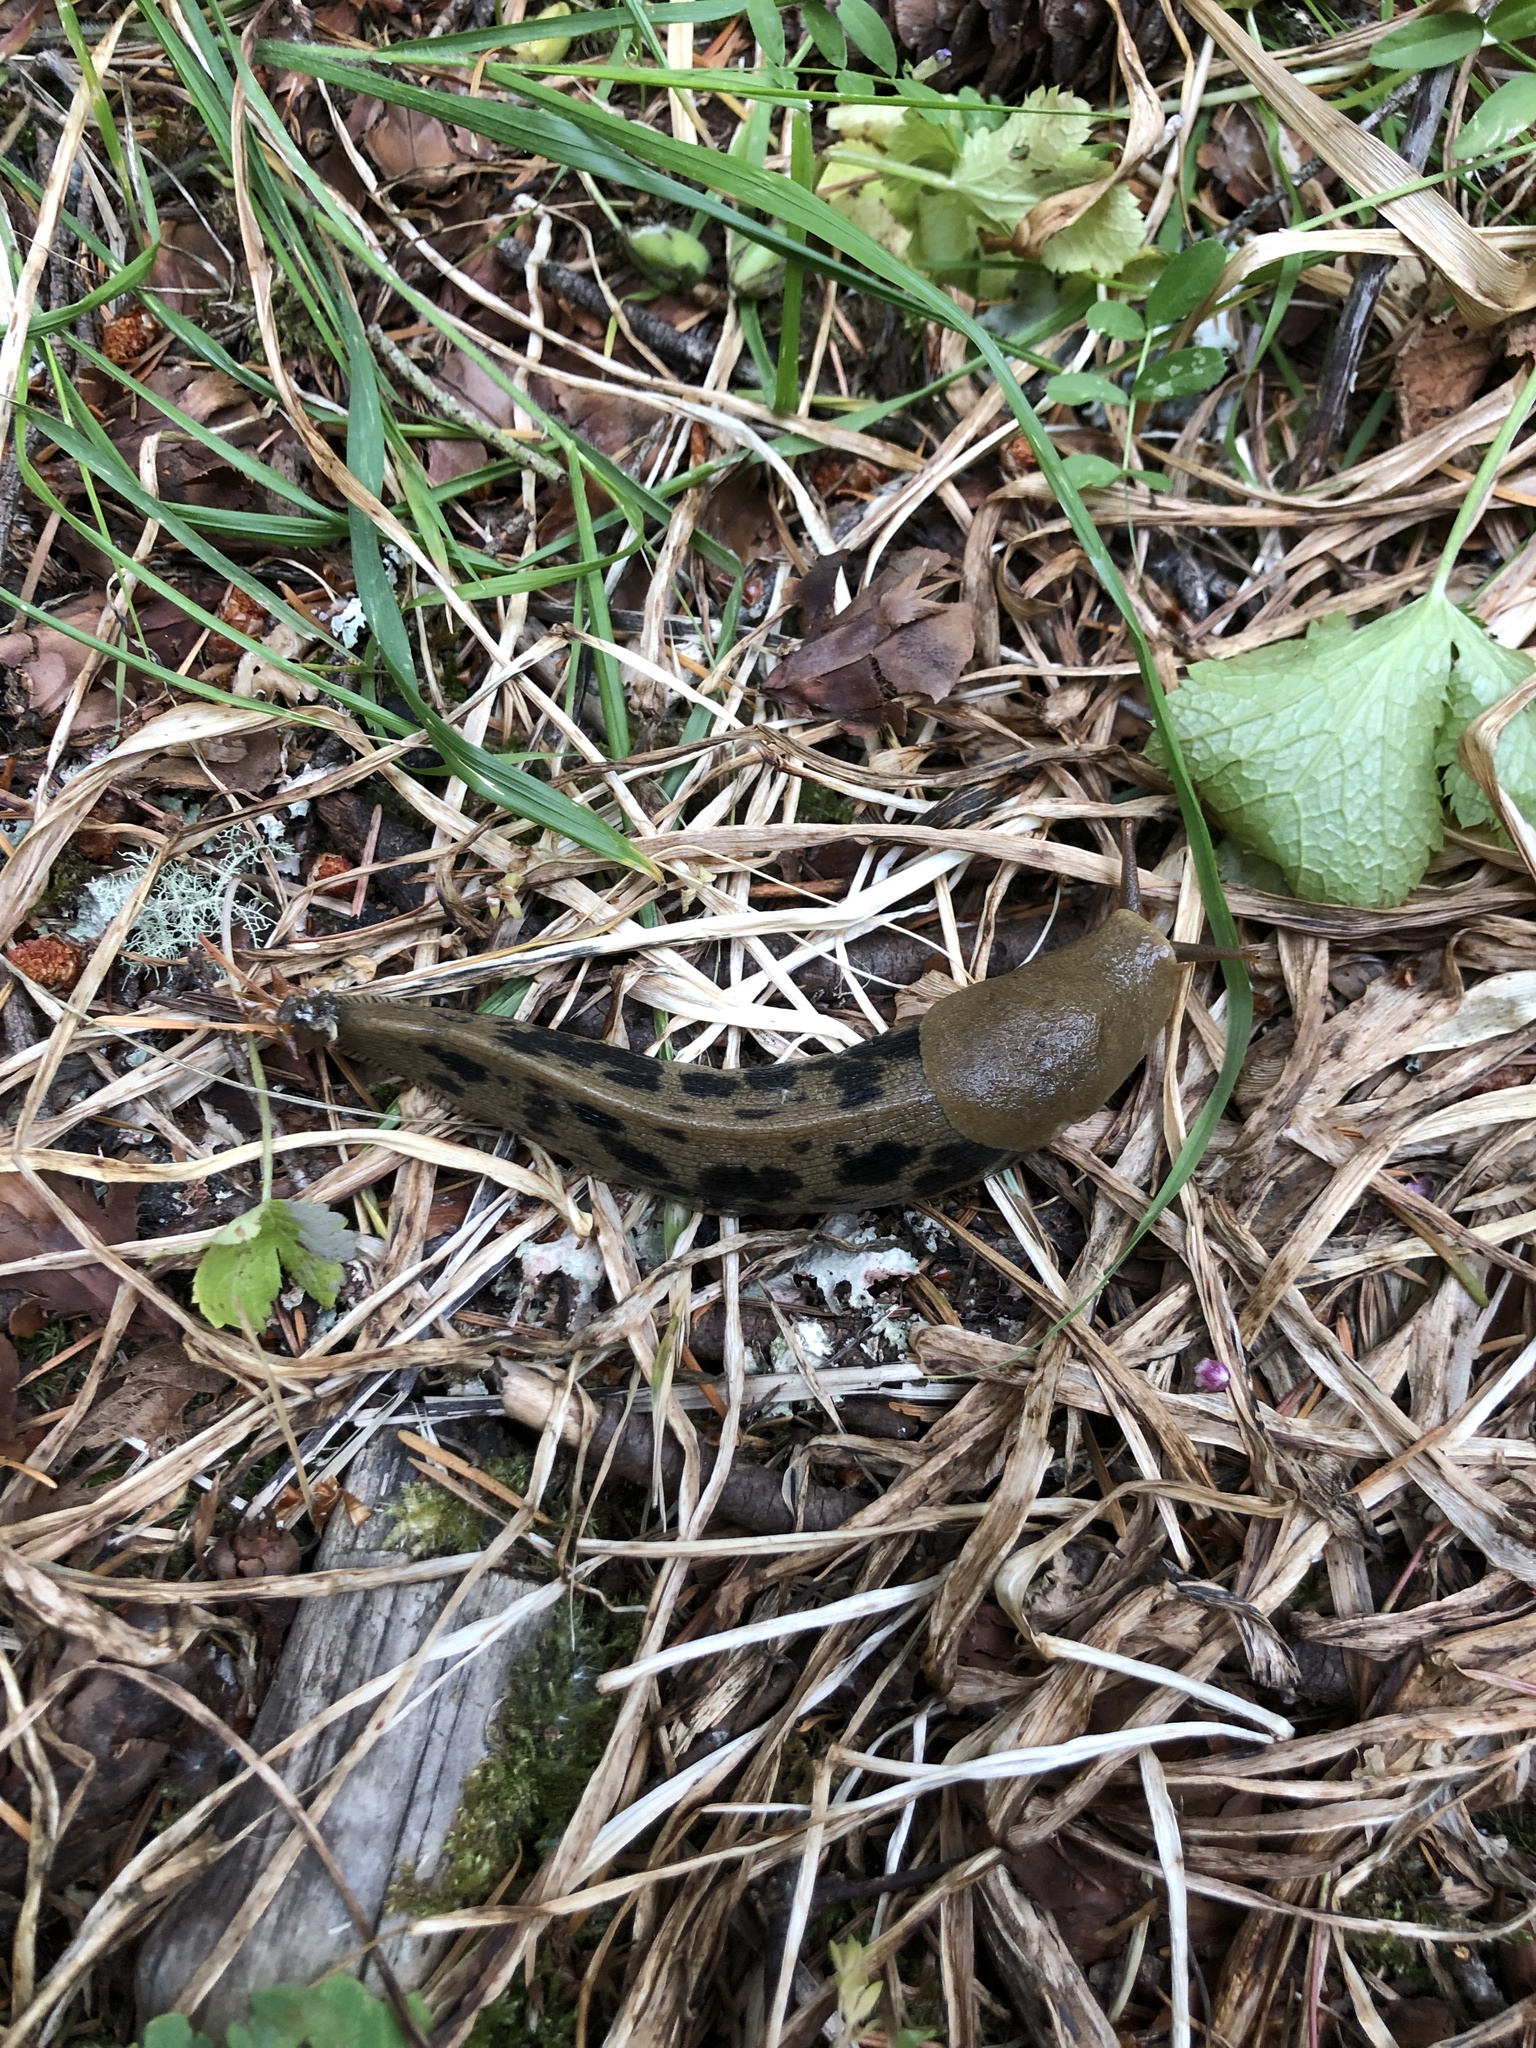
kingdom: Animalia
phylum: Mollusca
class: Gastropoda
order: Stylommatophora
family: Ariolimacidae
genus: Ariolimax
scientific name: Ariolimax columbianus
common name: Pacific banana slug
